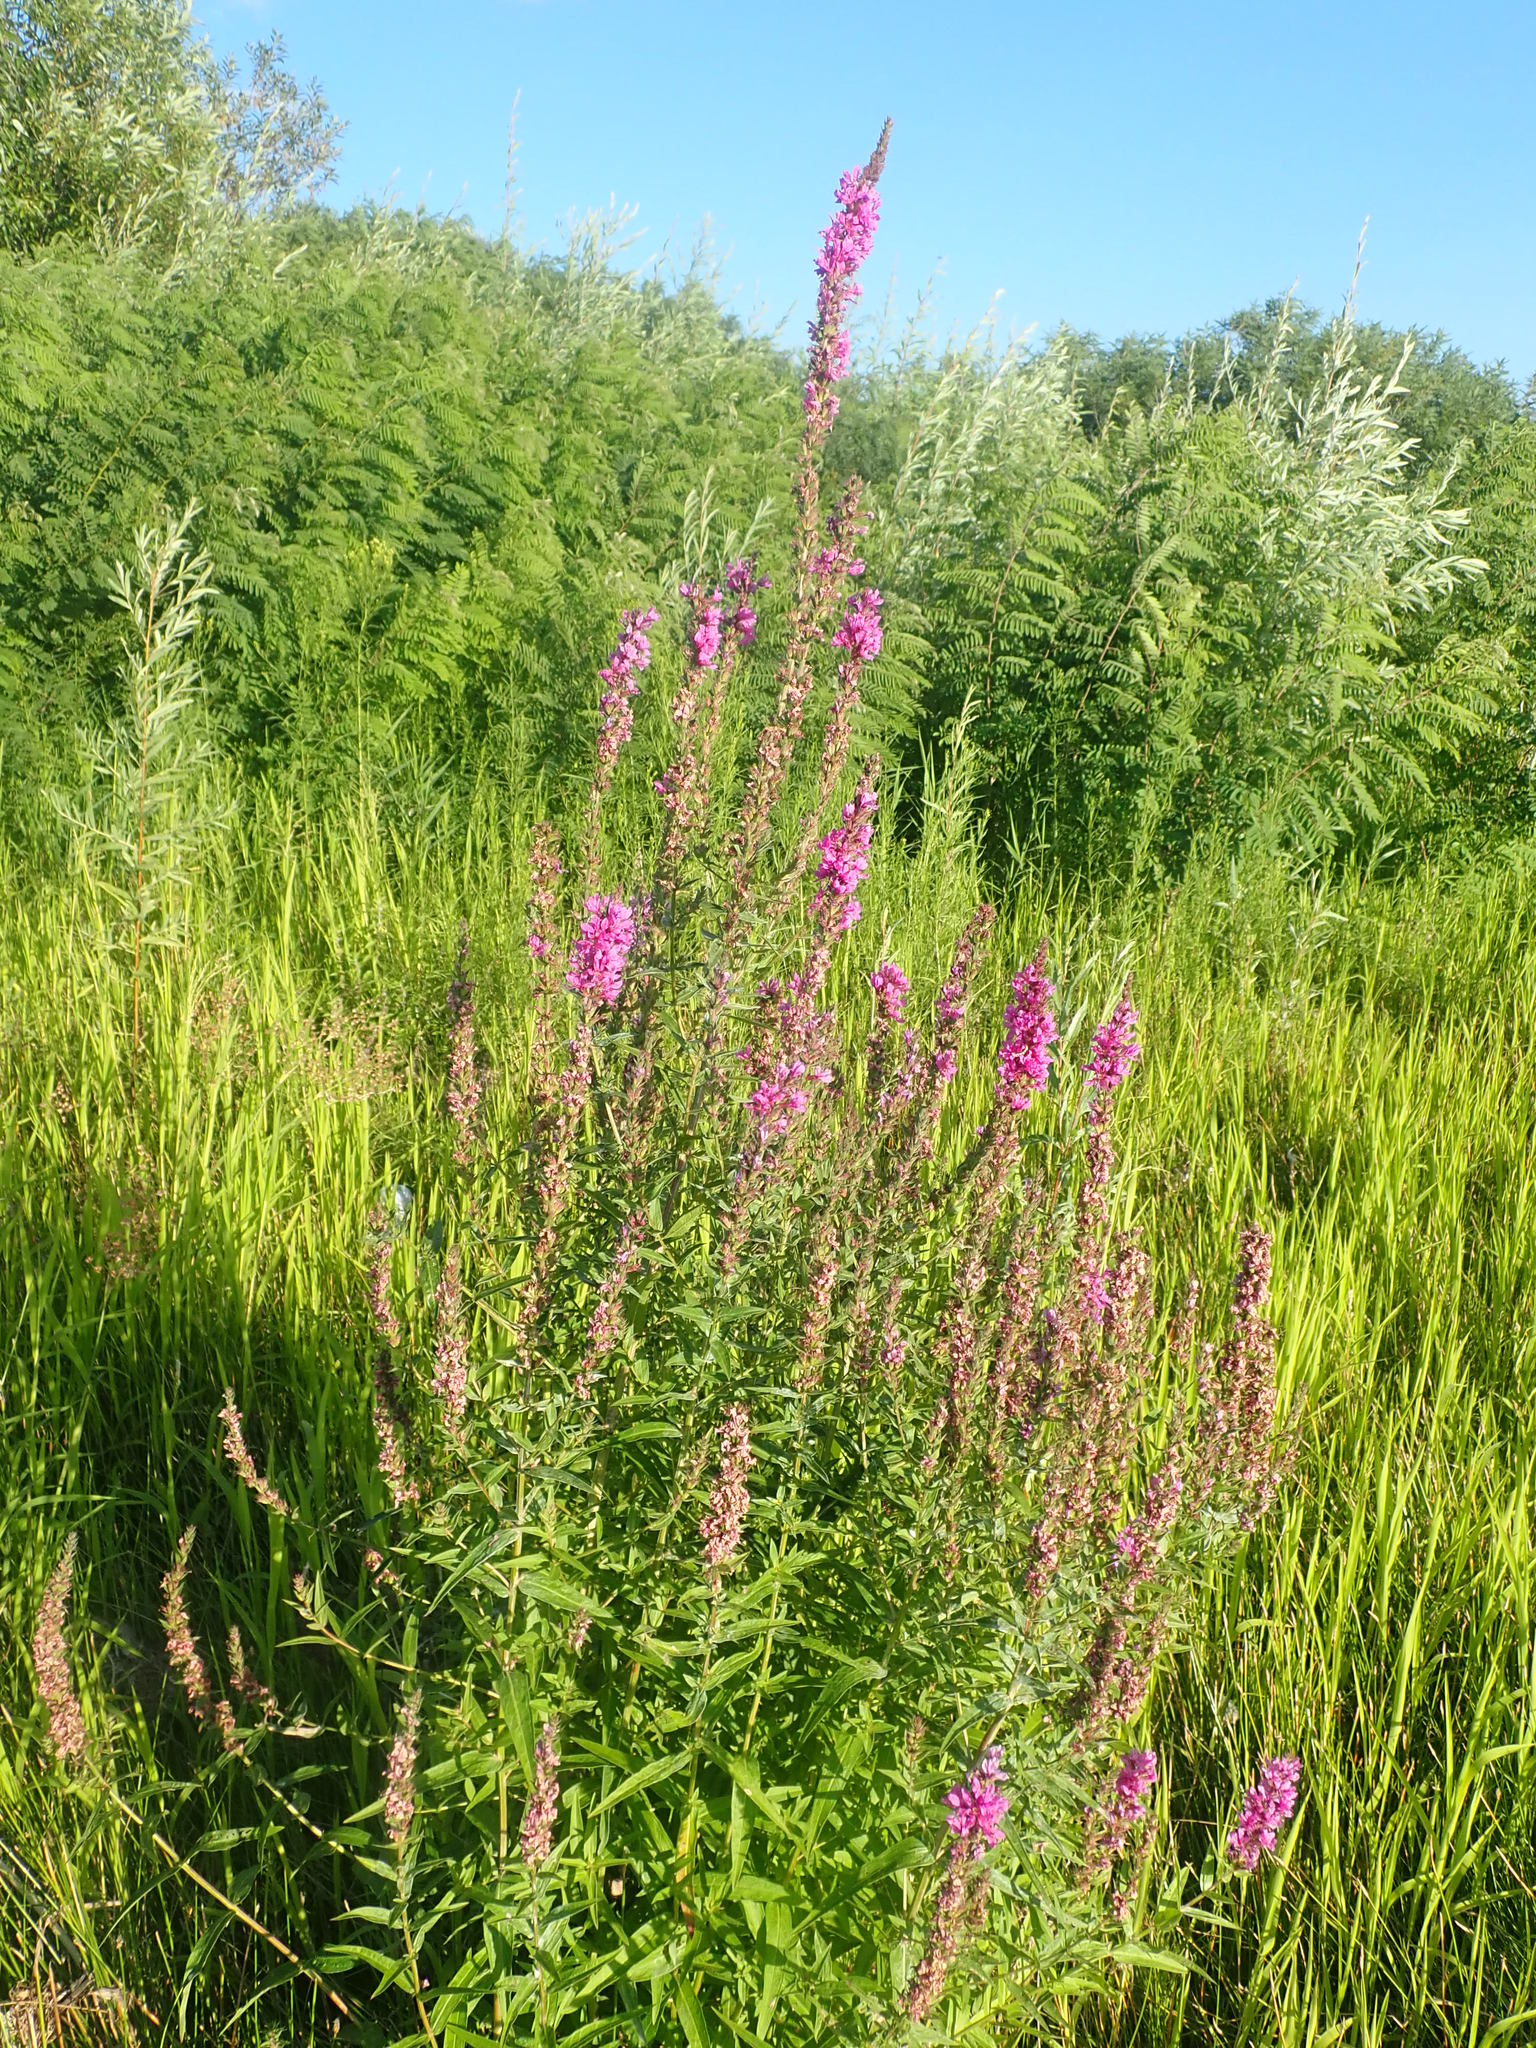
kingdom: Plantae
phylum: Tracheophyta
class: Magnoliopsida
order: Myrtales
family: Lythraceae
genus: Lythrum
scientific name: Lythrum salicaria
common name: Purple loosestrife
